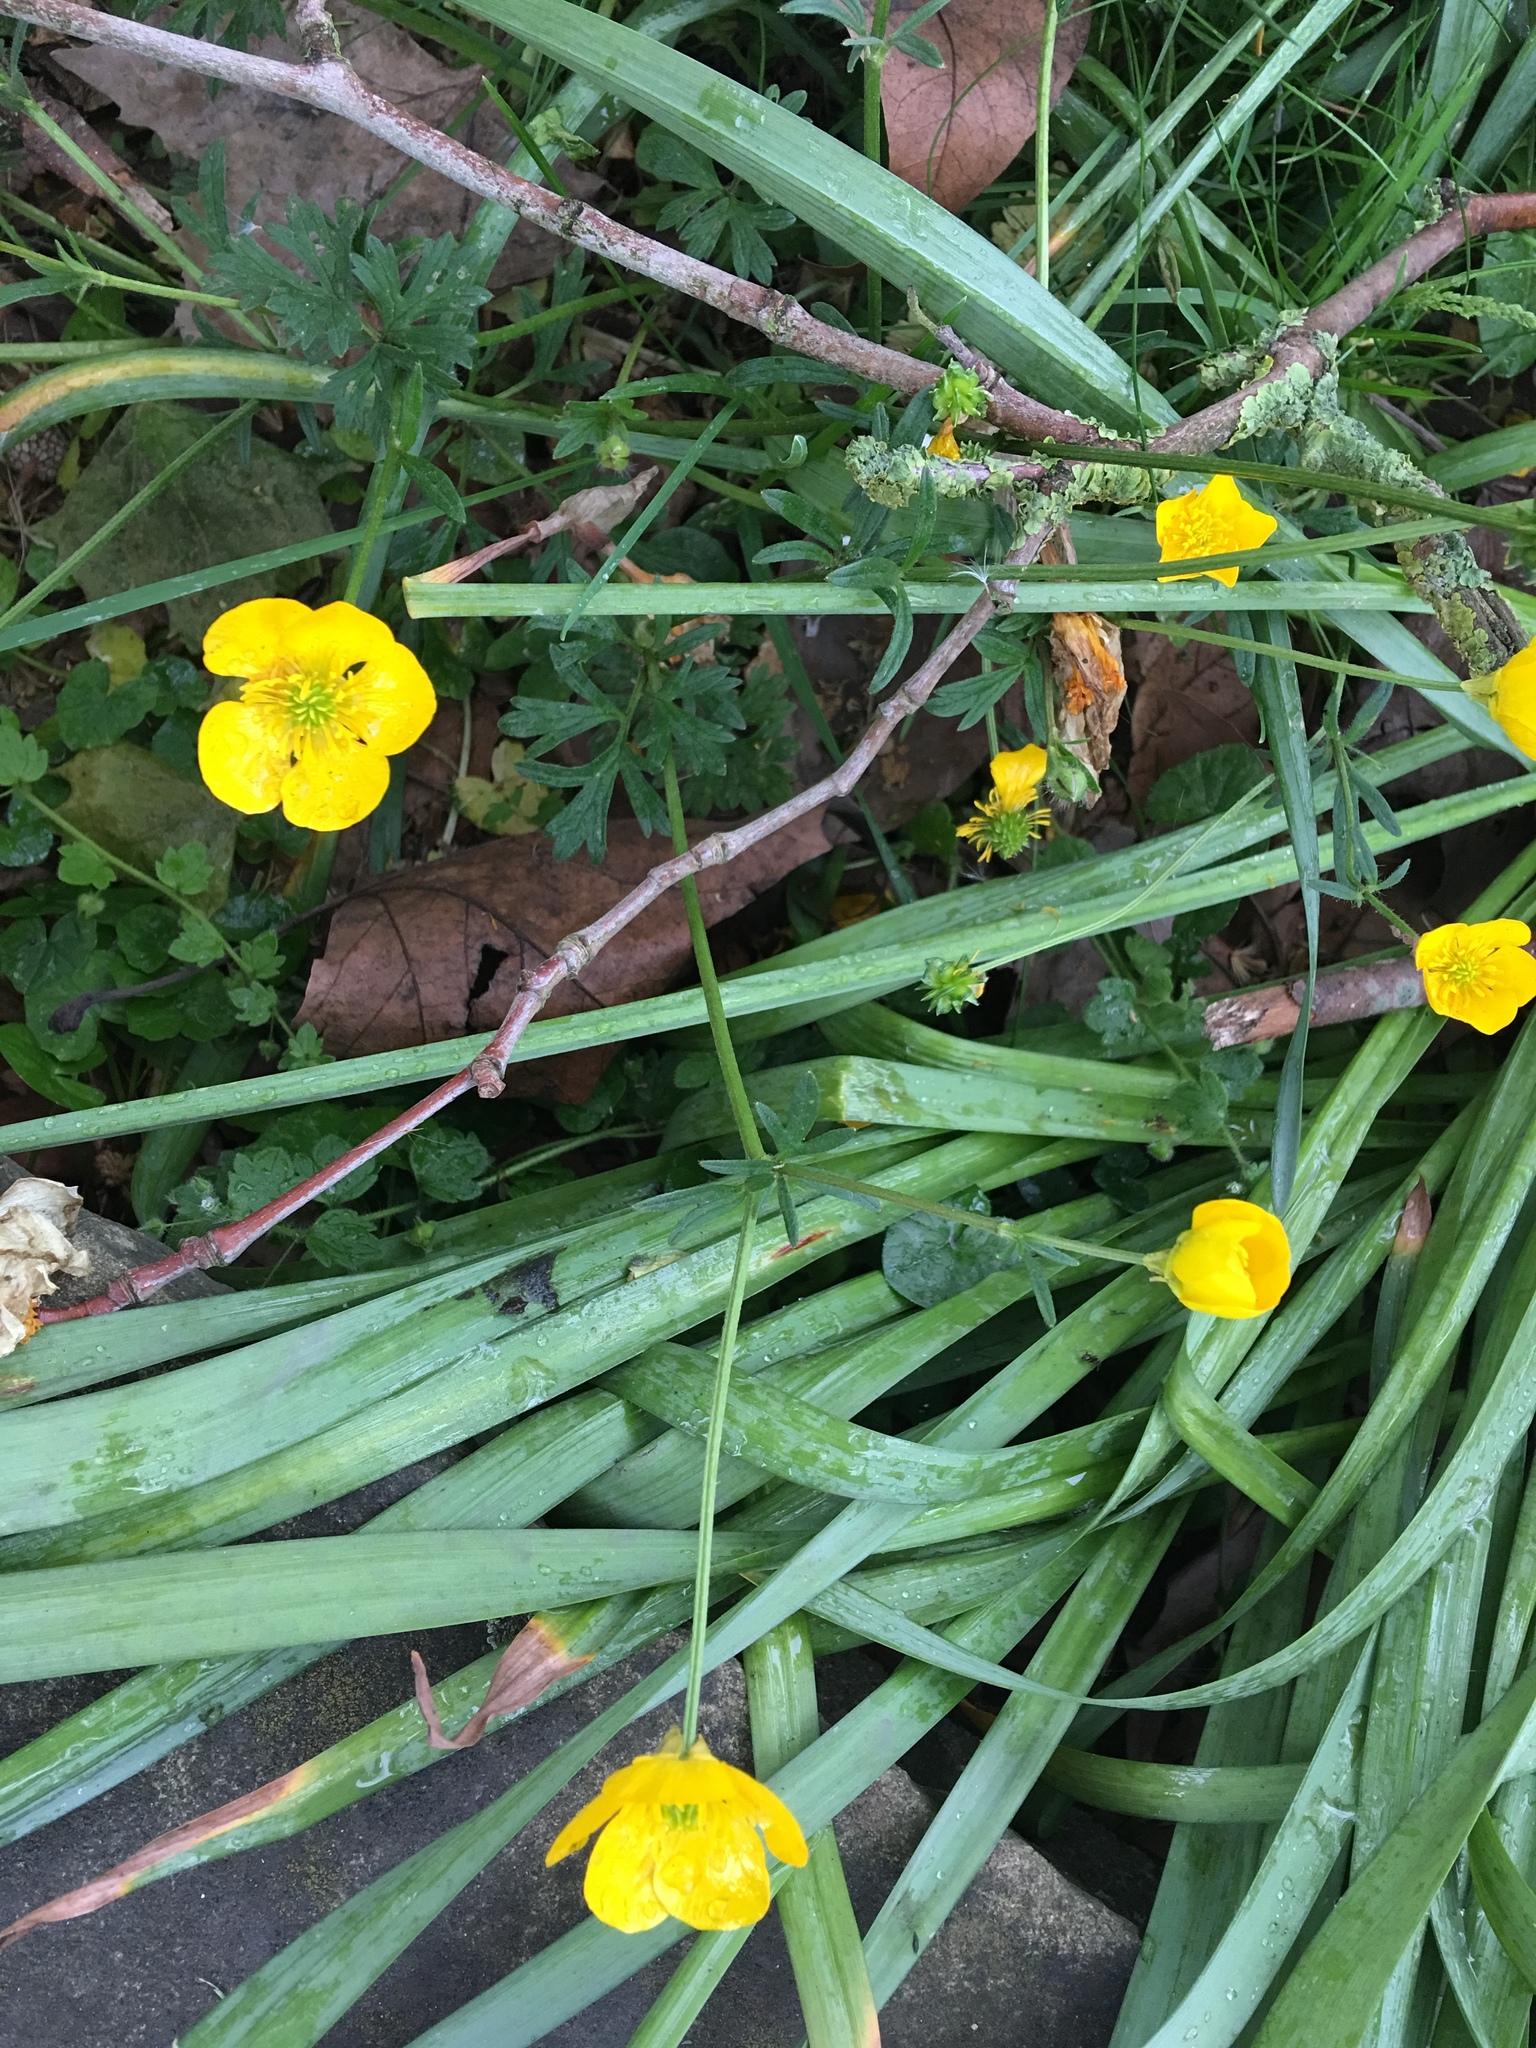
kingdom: Plantae
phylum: Tracheophyta
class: Magnoliopsida
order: Ranunculales
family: Ranunculaceae
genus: Ranunculus
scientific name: Ranunculus bulbosus
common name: Bulbous buttercup
